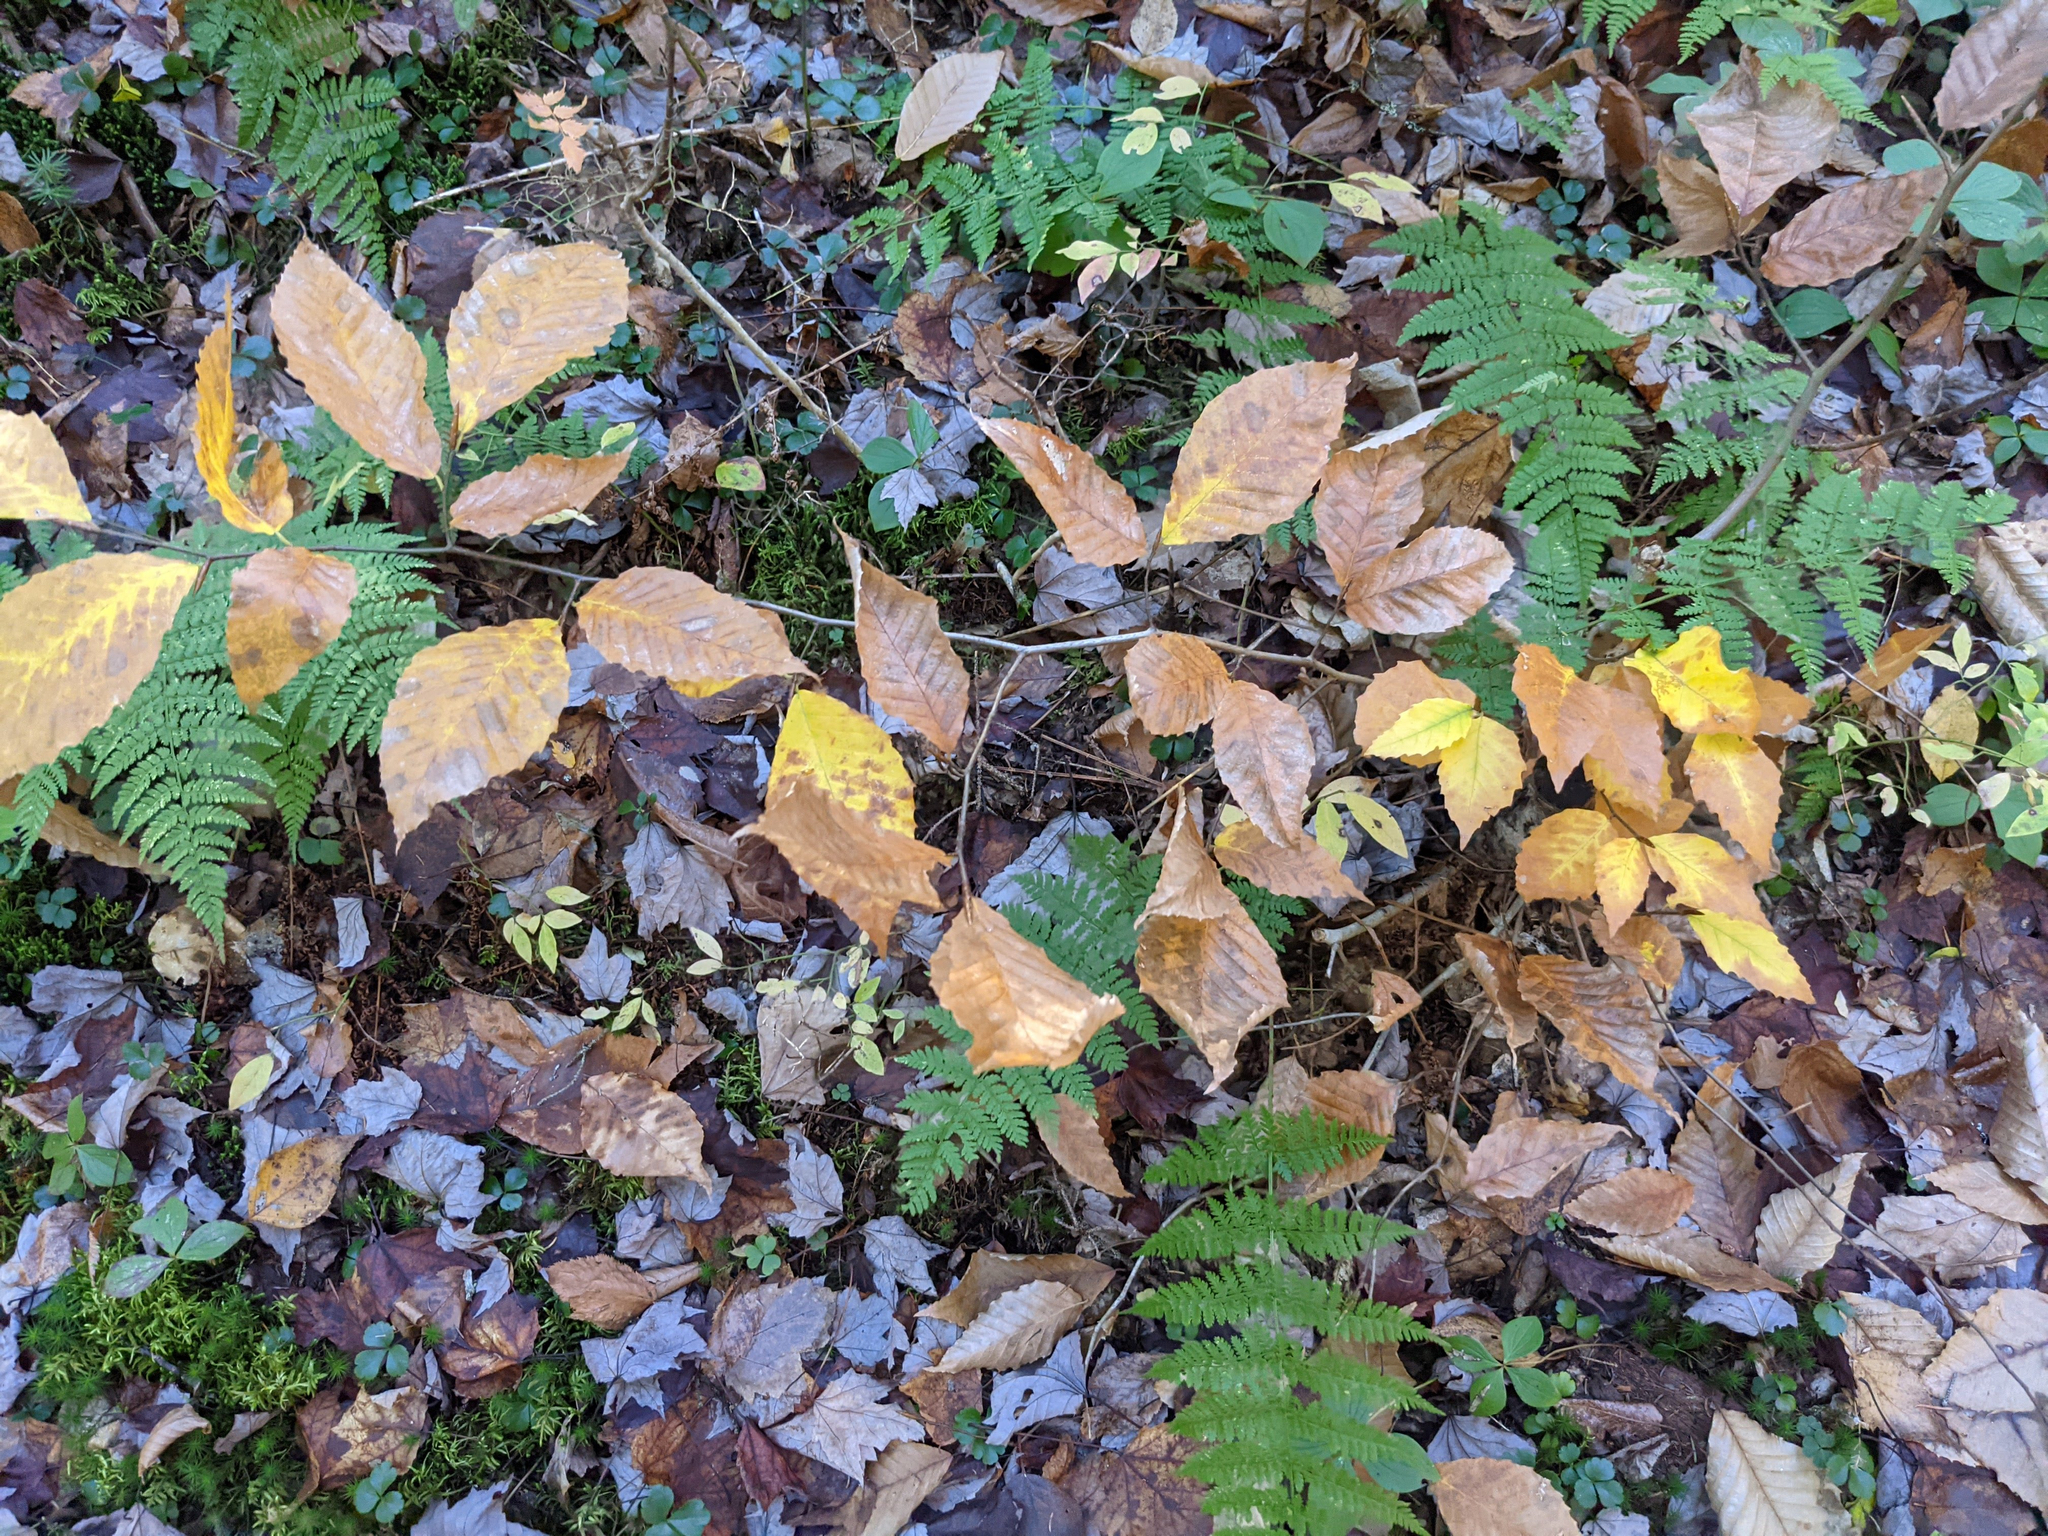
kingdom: Plantae
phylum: Tracheophyta
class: Magnoliopsida
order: Fagales
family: Fagaceae
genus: Fagus
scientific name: Fagus grandifolia
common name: American beech
